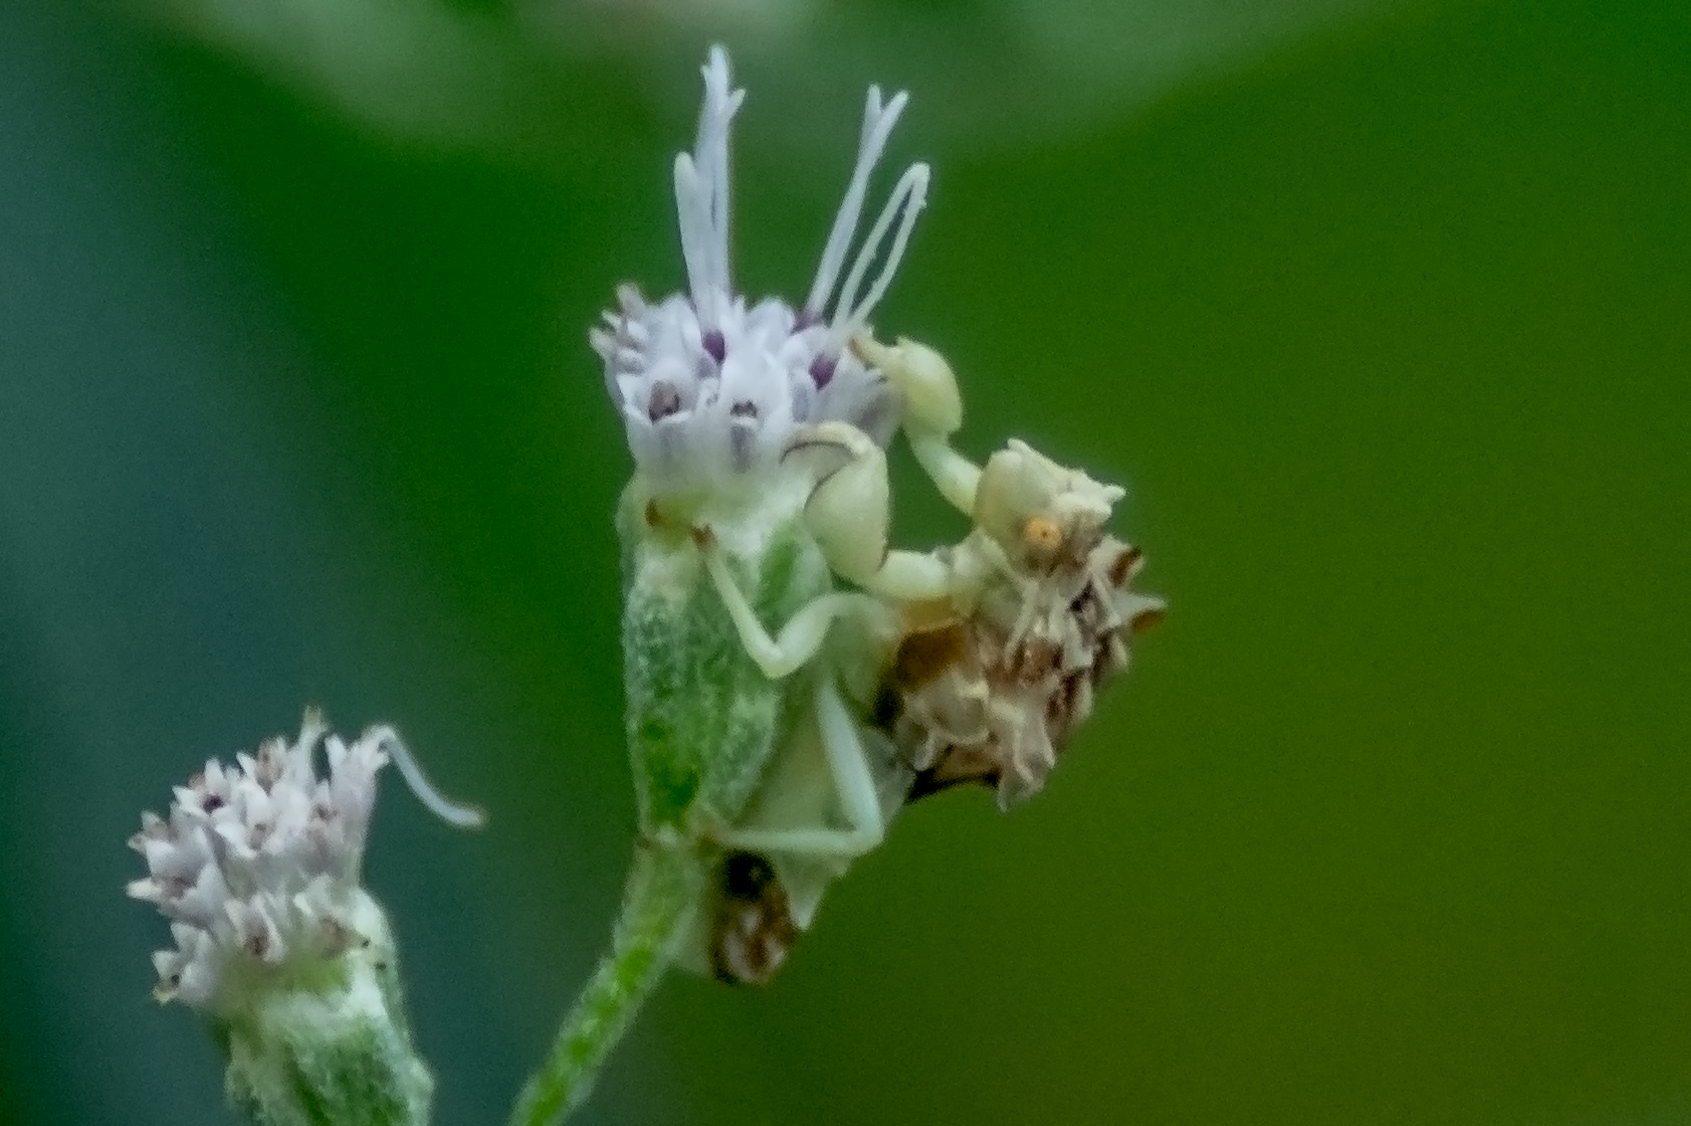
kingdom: Animalia
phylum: Arthropoda
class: Insecta
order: Hemiptera
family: Reduviidae
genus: Phymata
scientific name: Phymata fasciata
